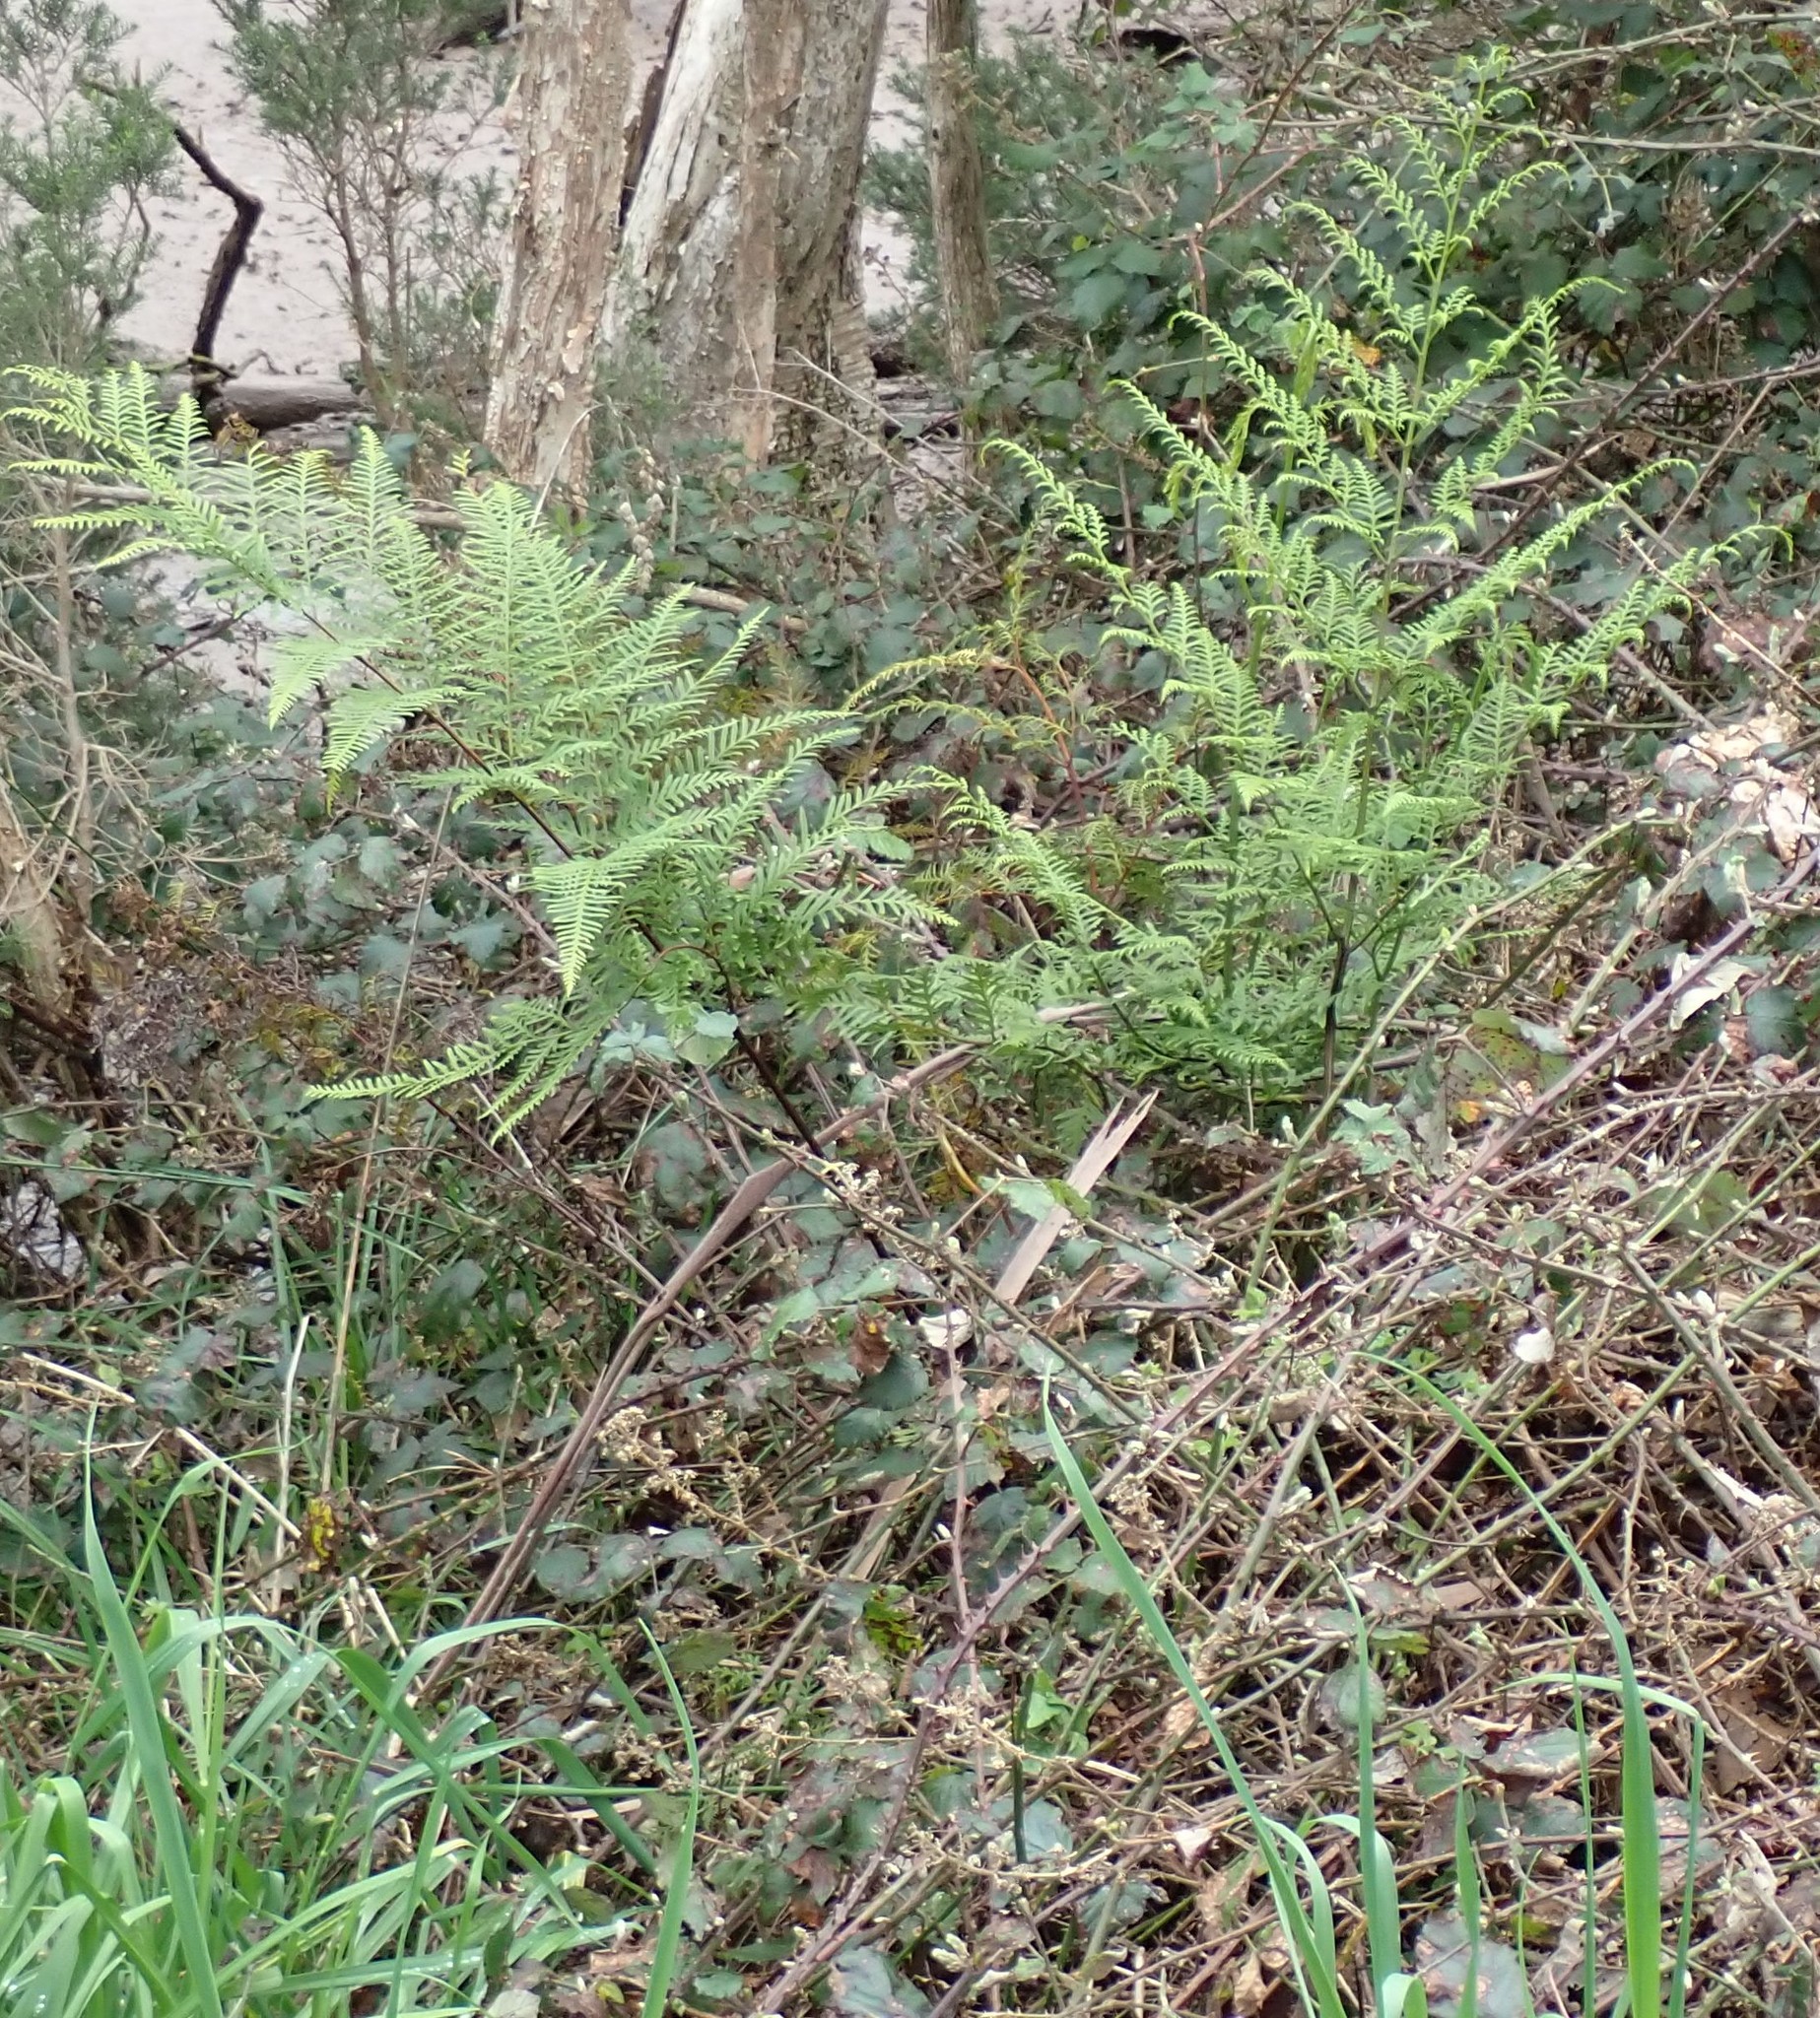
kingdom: Plantae
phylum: Tracheophyta
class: Polypodiopsida
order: Polypodiales
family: Pteridaceae
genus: Pteris
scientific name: Pteris tremula
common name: Australian brake
